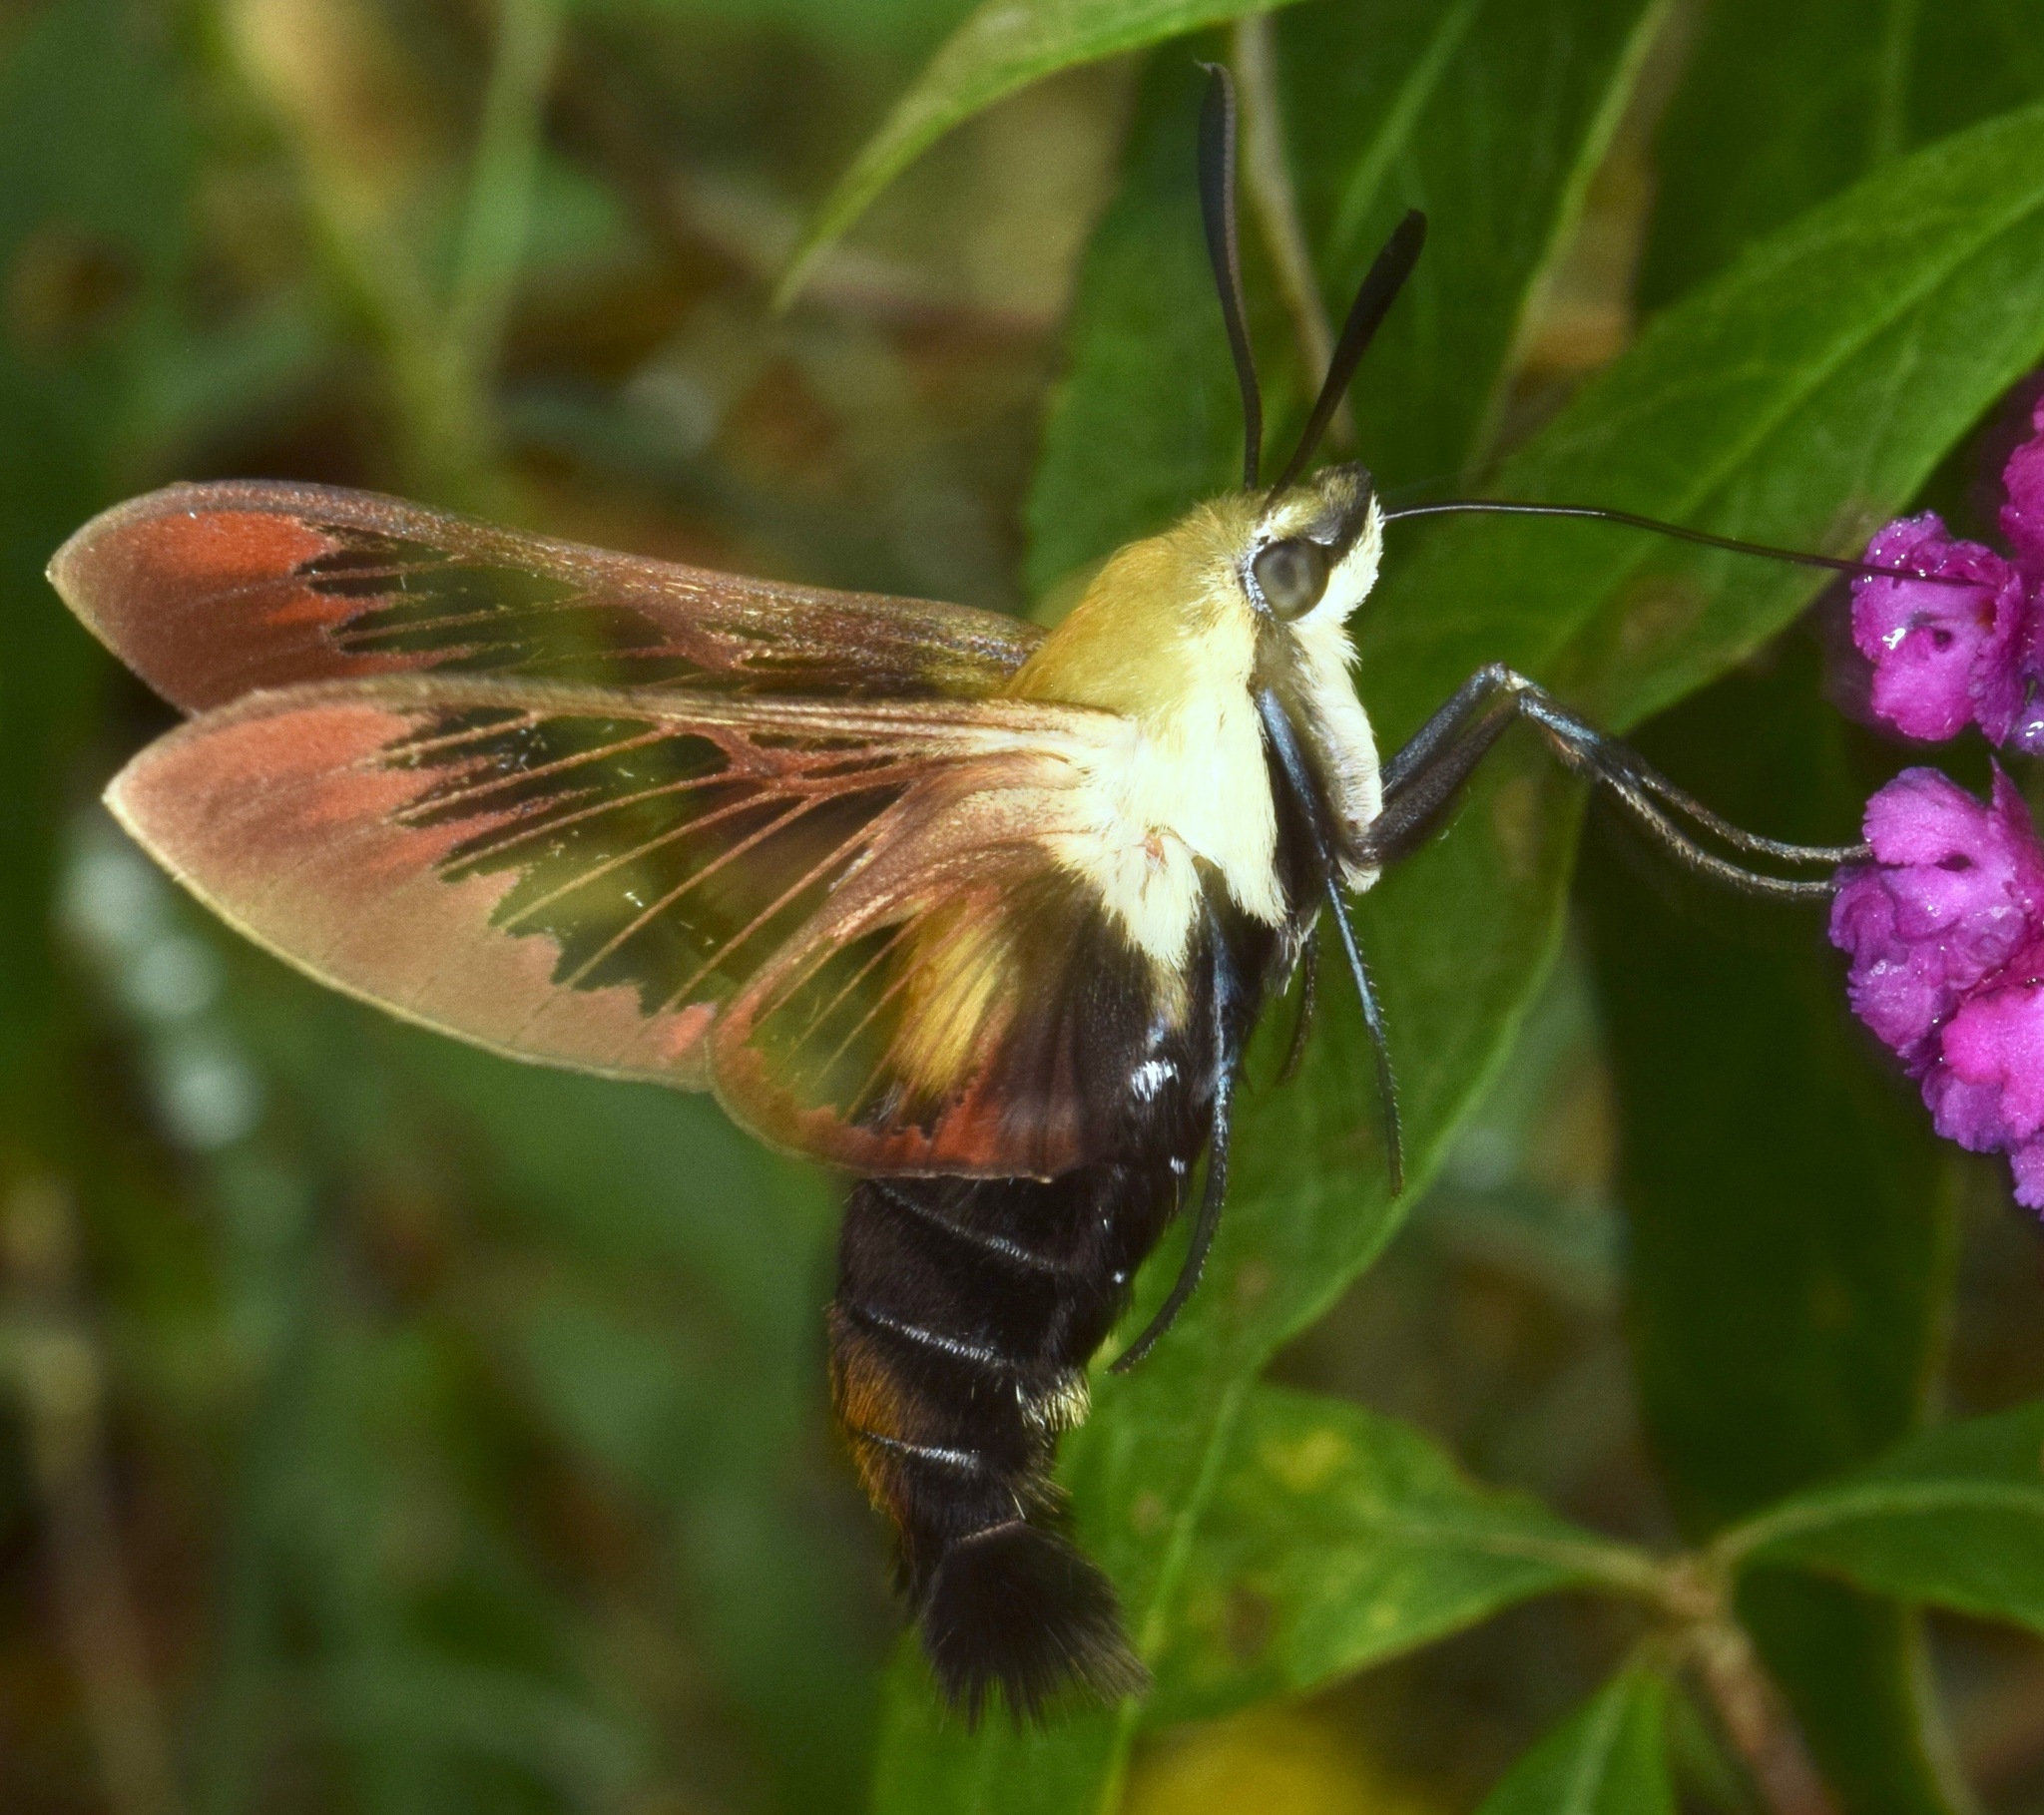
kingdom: Animalia
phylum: Arthropoda
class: Insecta
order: Lepidoptera
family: Sphingidae
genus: Hemaris
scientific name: Hemaris diffinis
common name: Bumblebee moth
